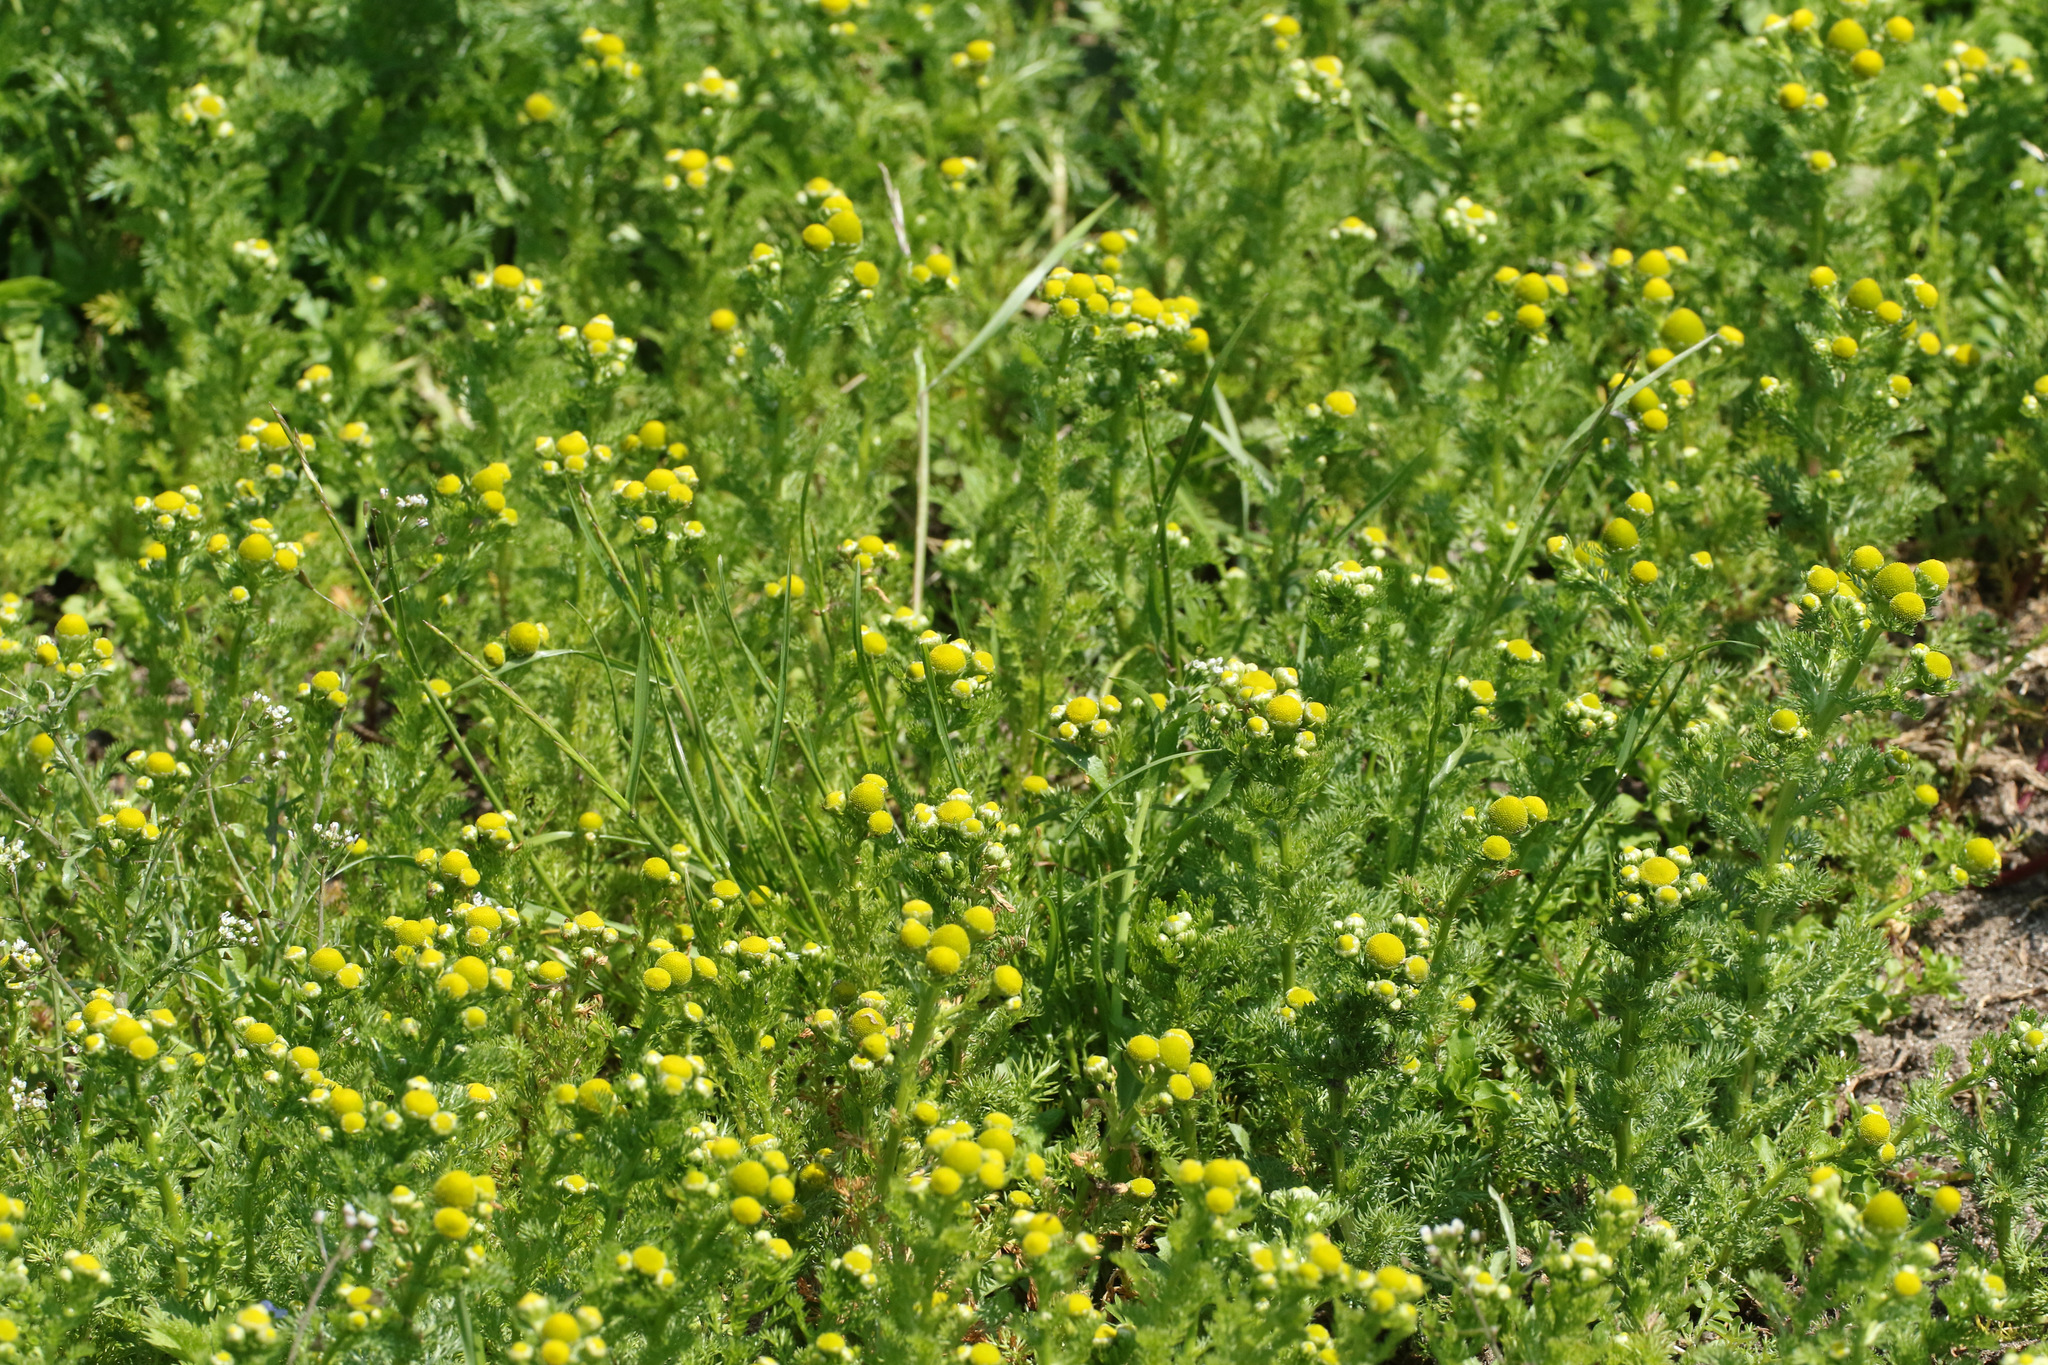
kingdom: Plantae
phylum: Tracheophyta
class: Magnoliopsida
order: Asterales
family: Asteraceae
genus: Matricaria
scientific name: Matricaria discoidea
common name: Disc mayweed
